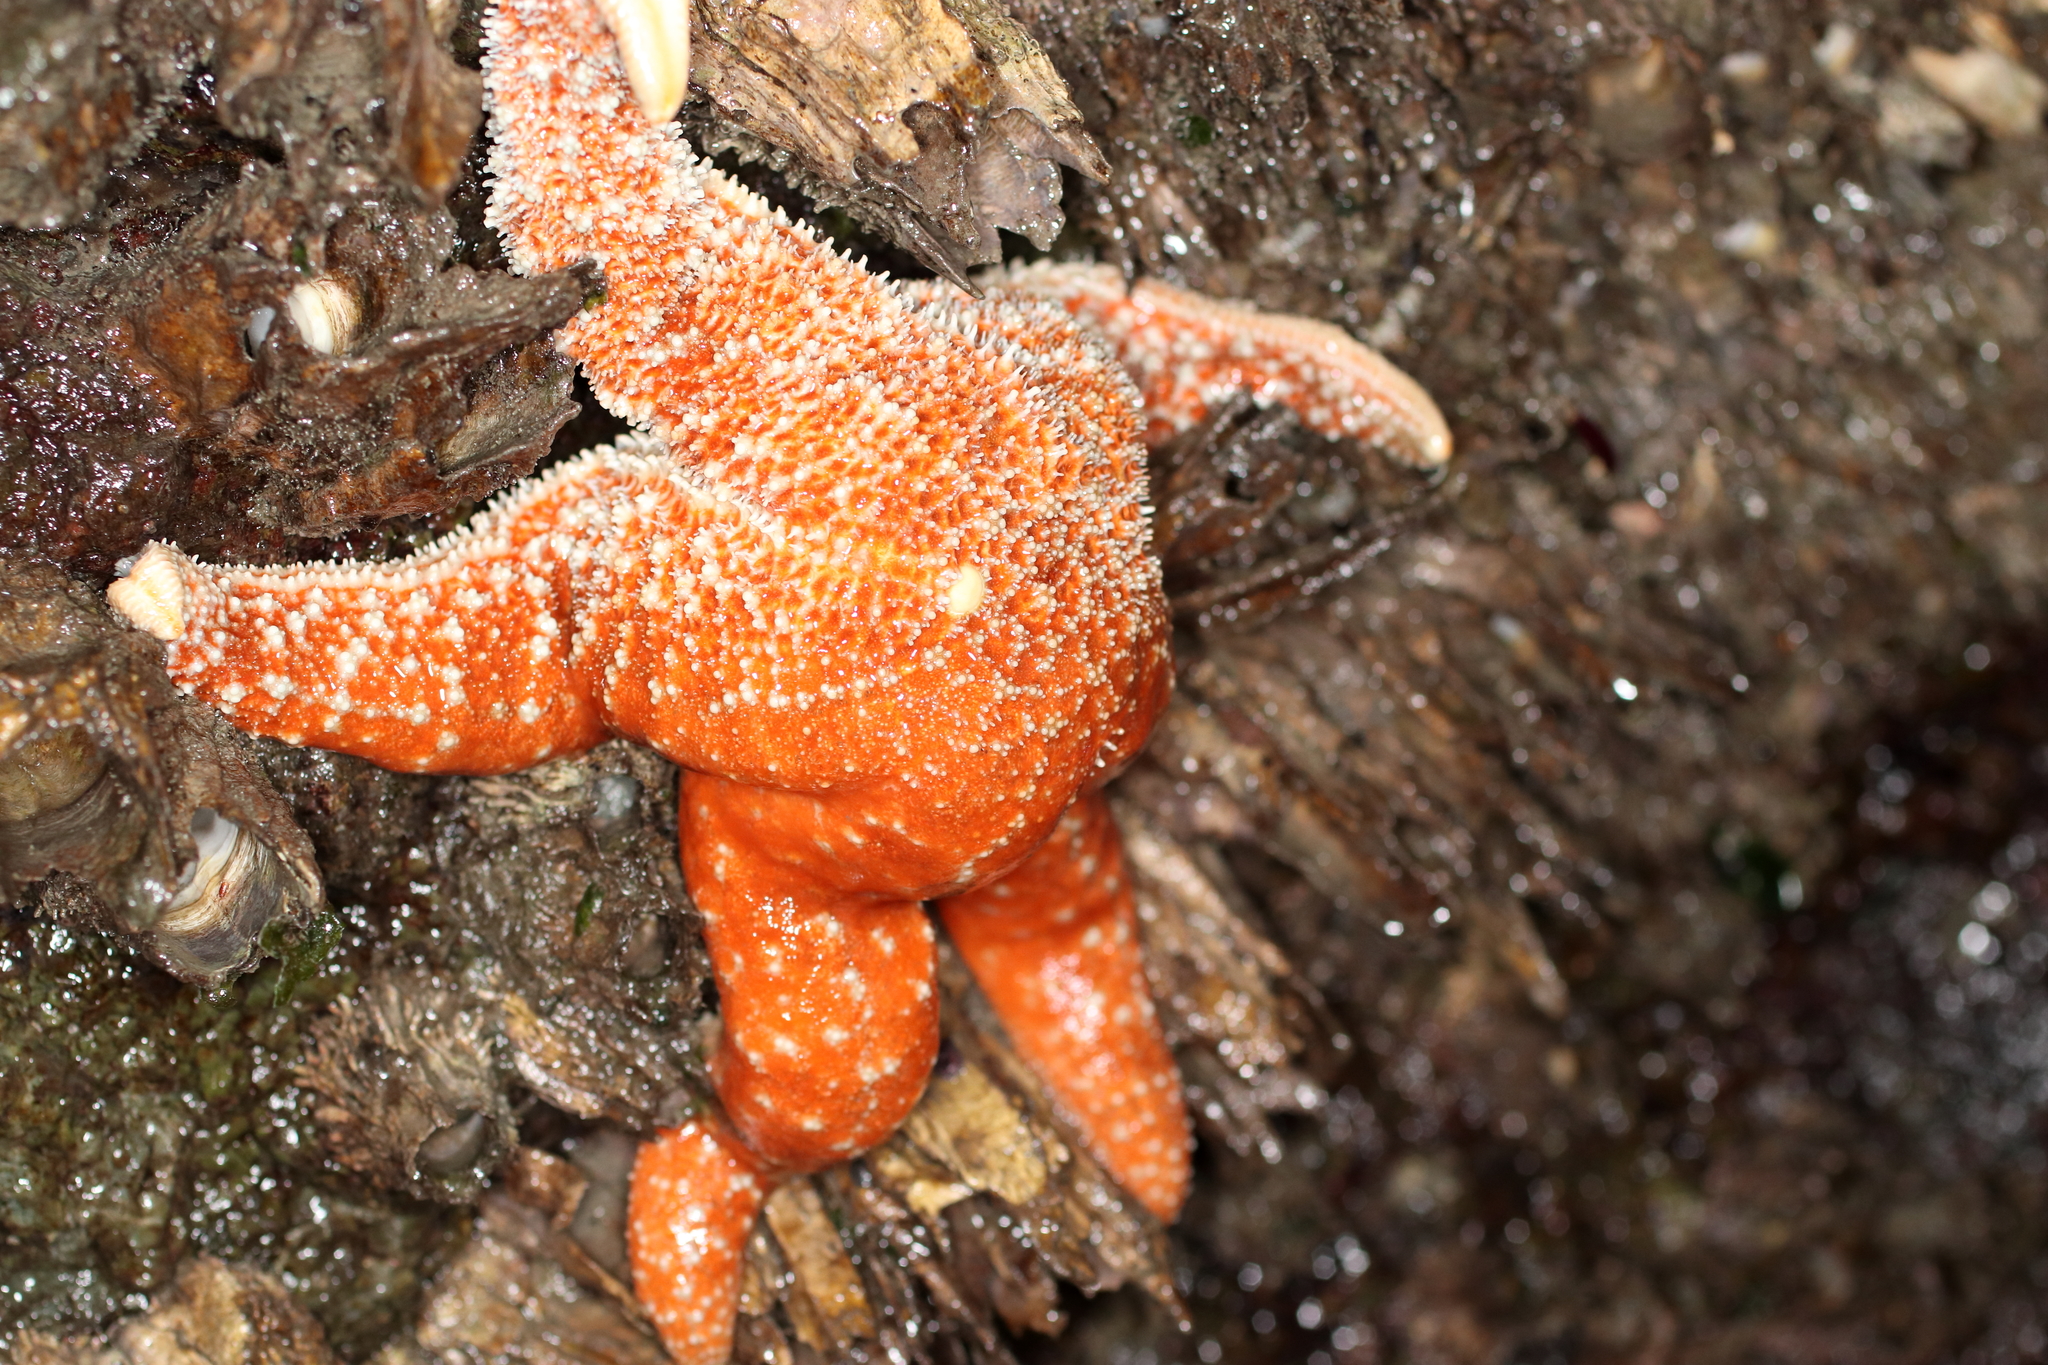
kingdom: Animalia
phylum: Echinodermata
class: Asteroidea
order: Forcipulatida
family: Asteriidae
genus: Evasterias
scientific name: Evasterias troschelii
